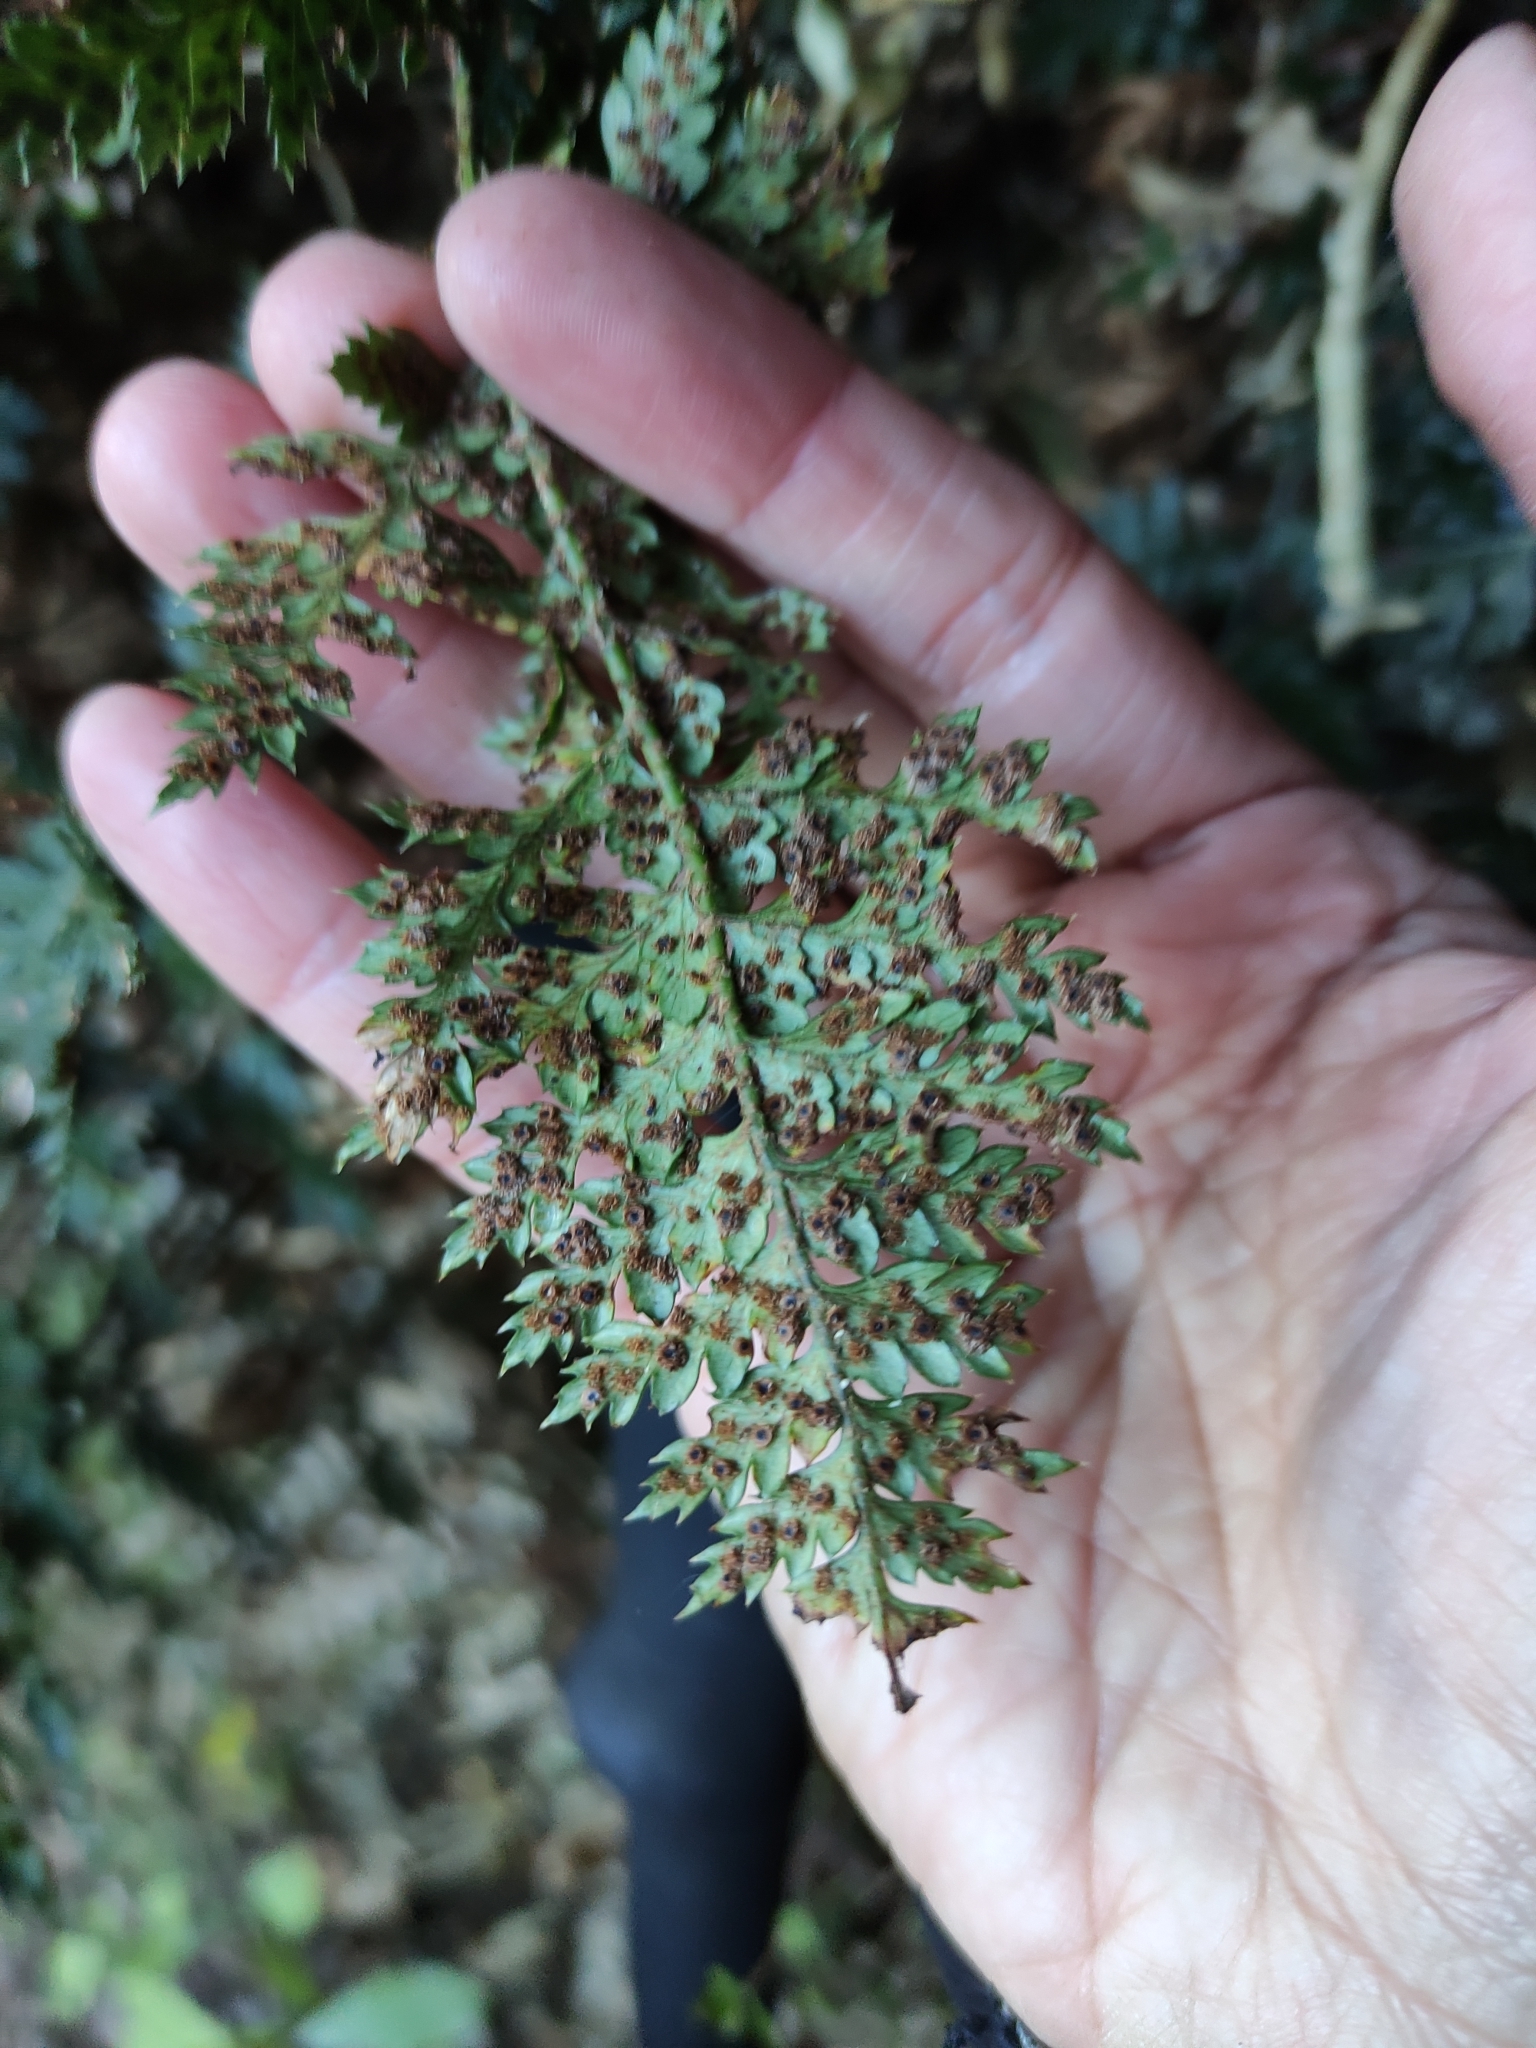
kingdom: Plantae
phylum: Tracheophyta
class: Polypodiopsida
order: Polypodiales
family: Dryopteridaceae
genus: Polystichum
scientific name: Polystichum oculatum
